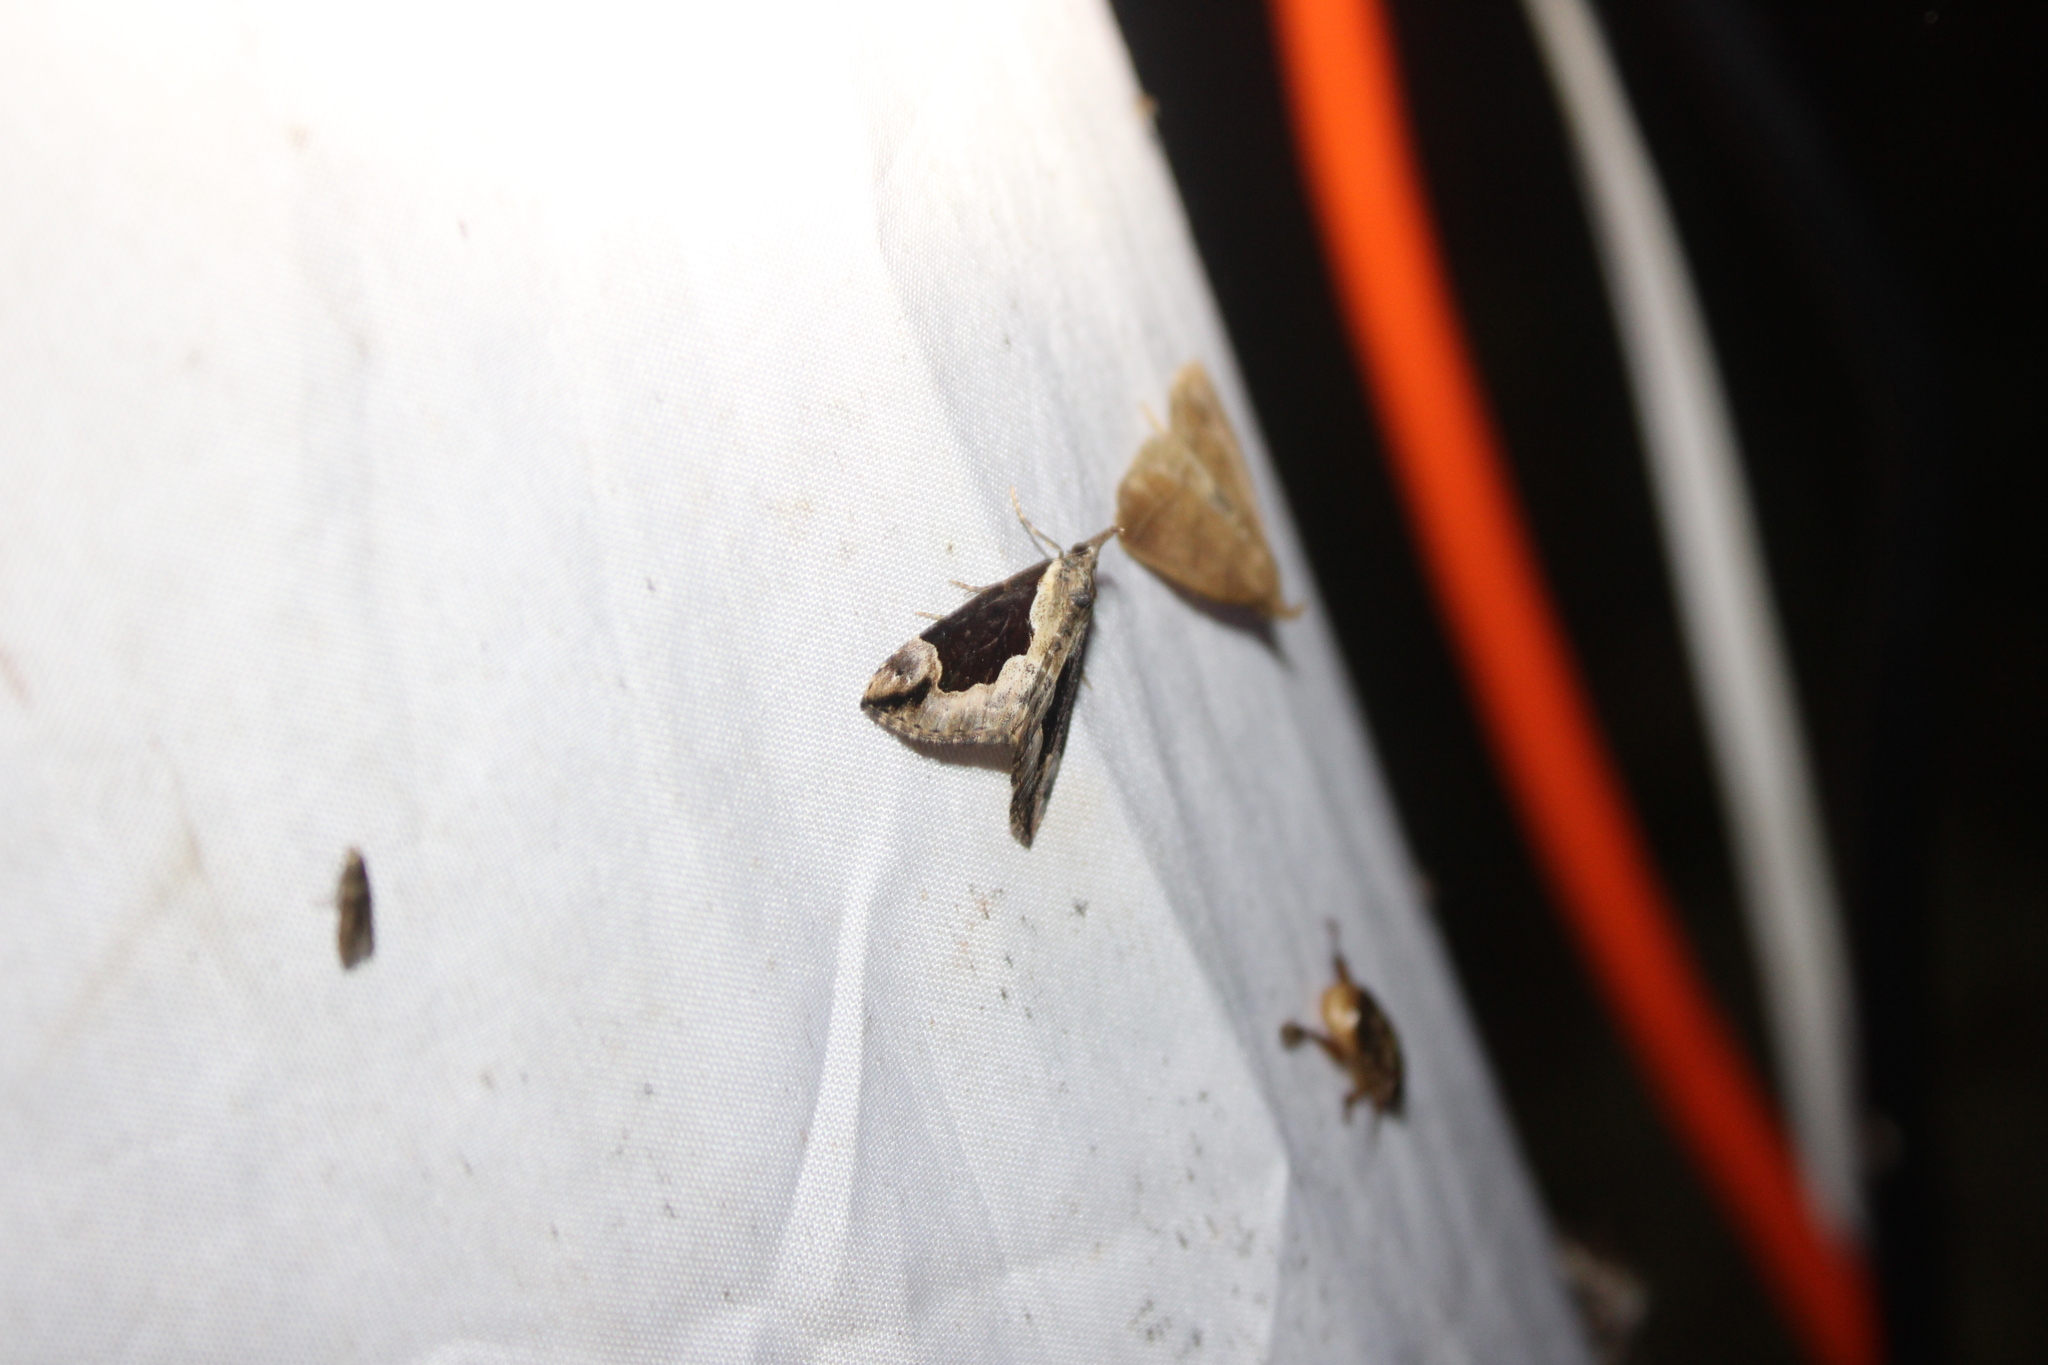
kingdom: Animalia
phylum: Arthropoda
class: Insecta
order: Lepidoptera
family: Erebidae
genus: Hypena
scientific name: Hypena baltimoralis
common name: Baltimore snout
